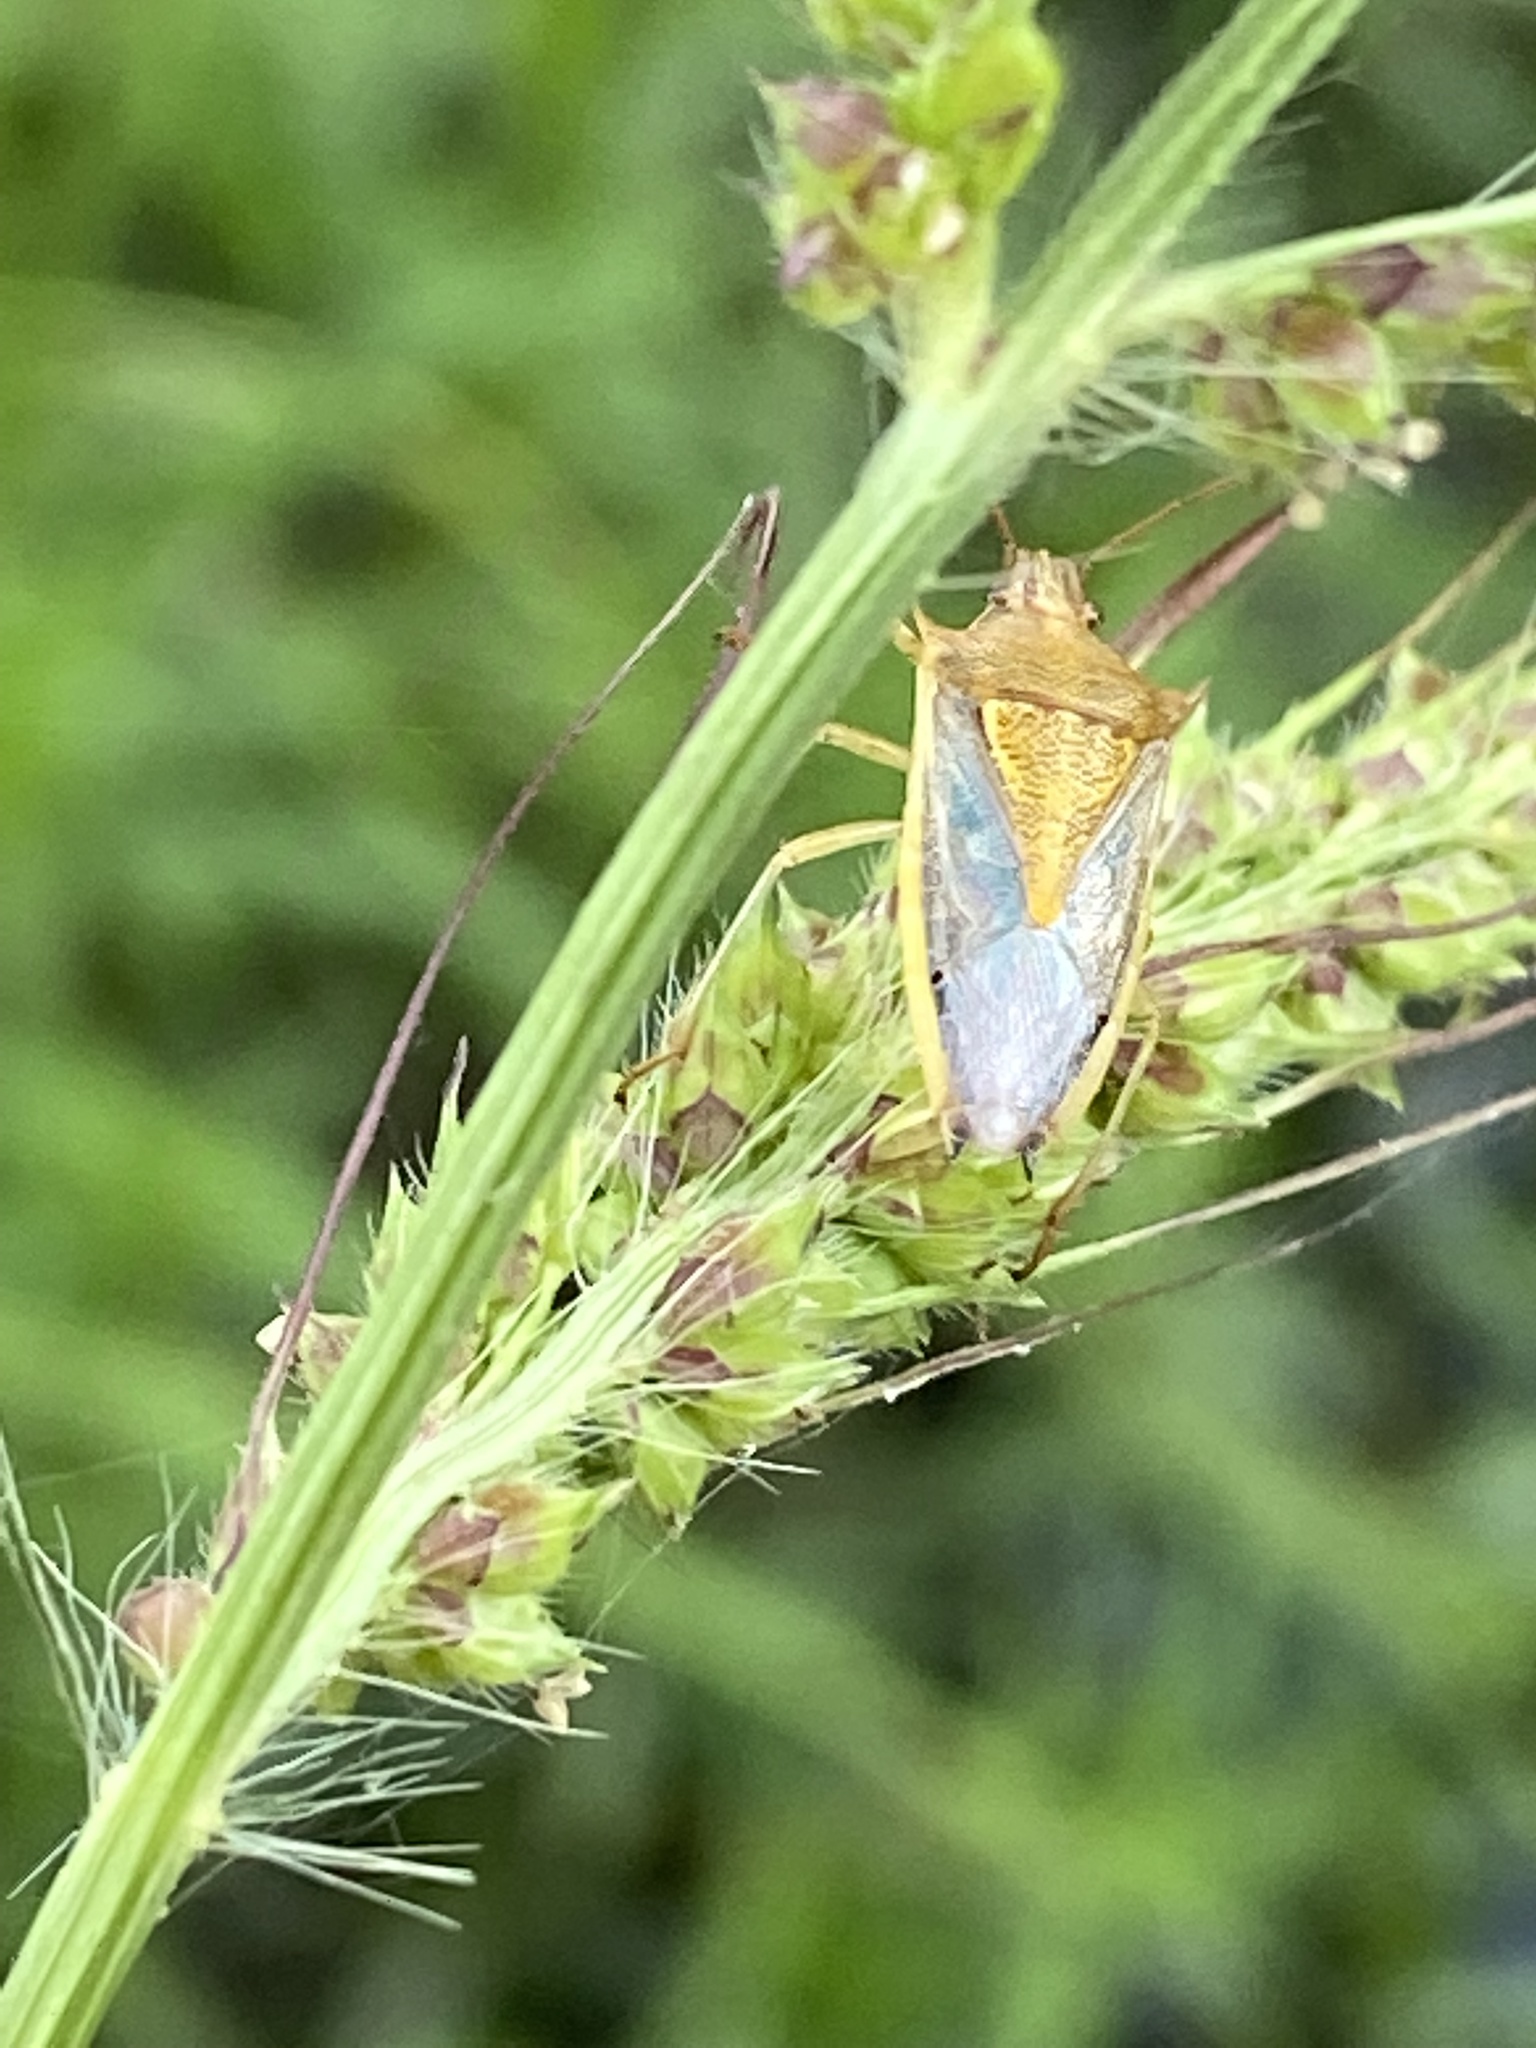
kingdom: Animalia
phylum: Arthropoda
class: Insecta
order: Hemiptera
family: Pentatomidae
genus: Oebalus
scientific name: Oebalus pugnax
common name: Rice stink bug
